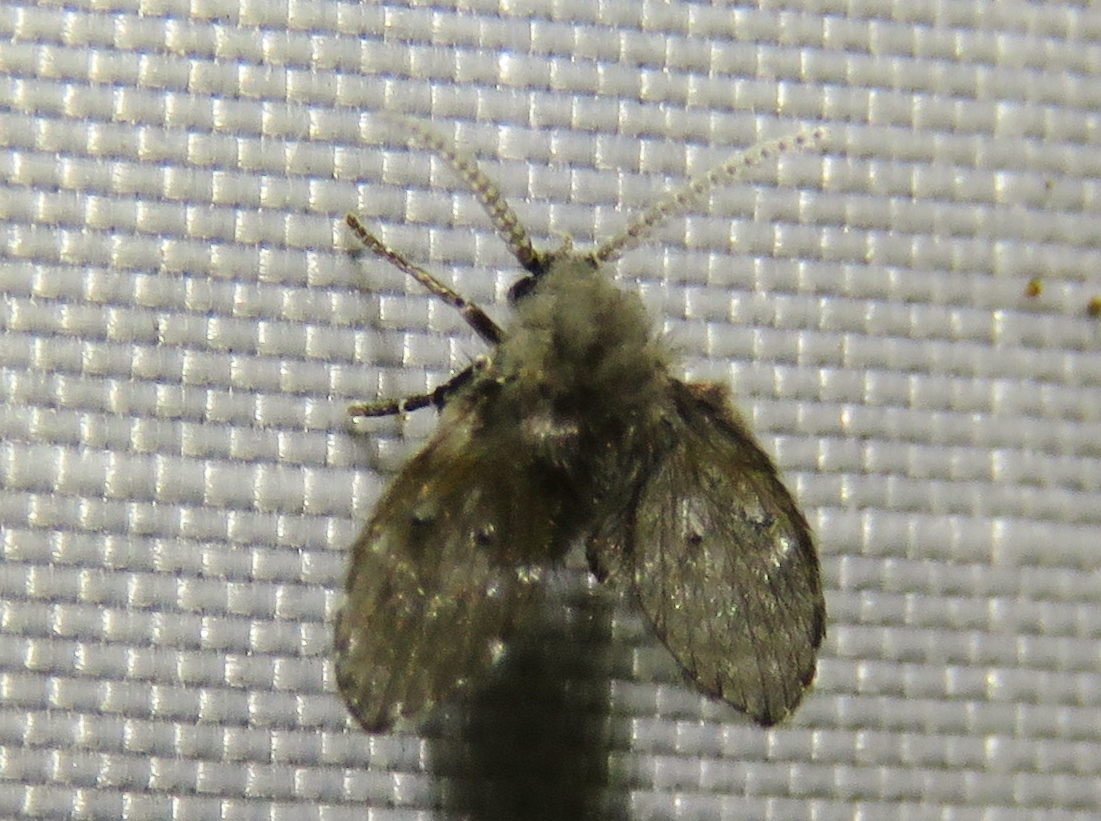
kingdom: Animalia
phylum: Arthropoda
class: Insecta
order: Diptera
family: Psychodidae
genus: Clogmia
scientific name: Clogmia albipunctatus
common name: White-spotted moth fly
